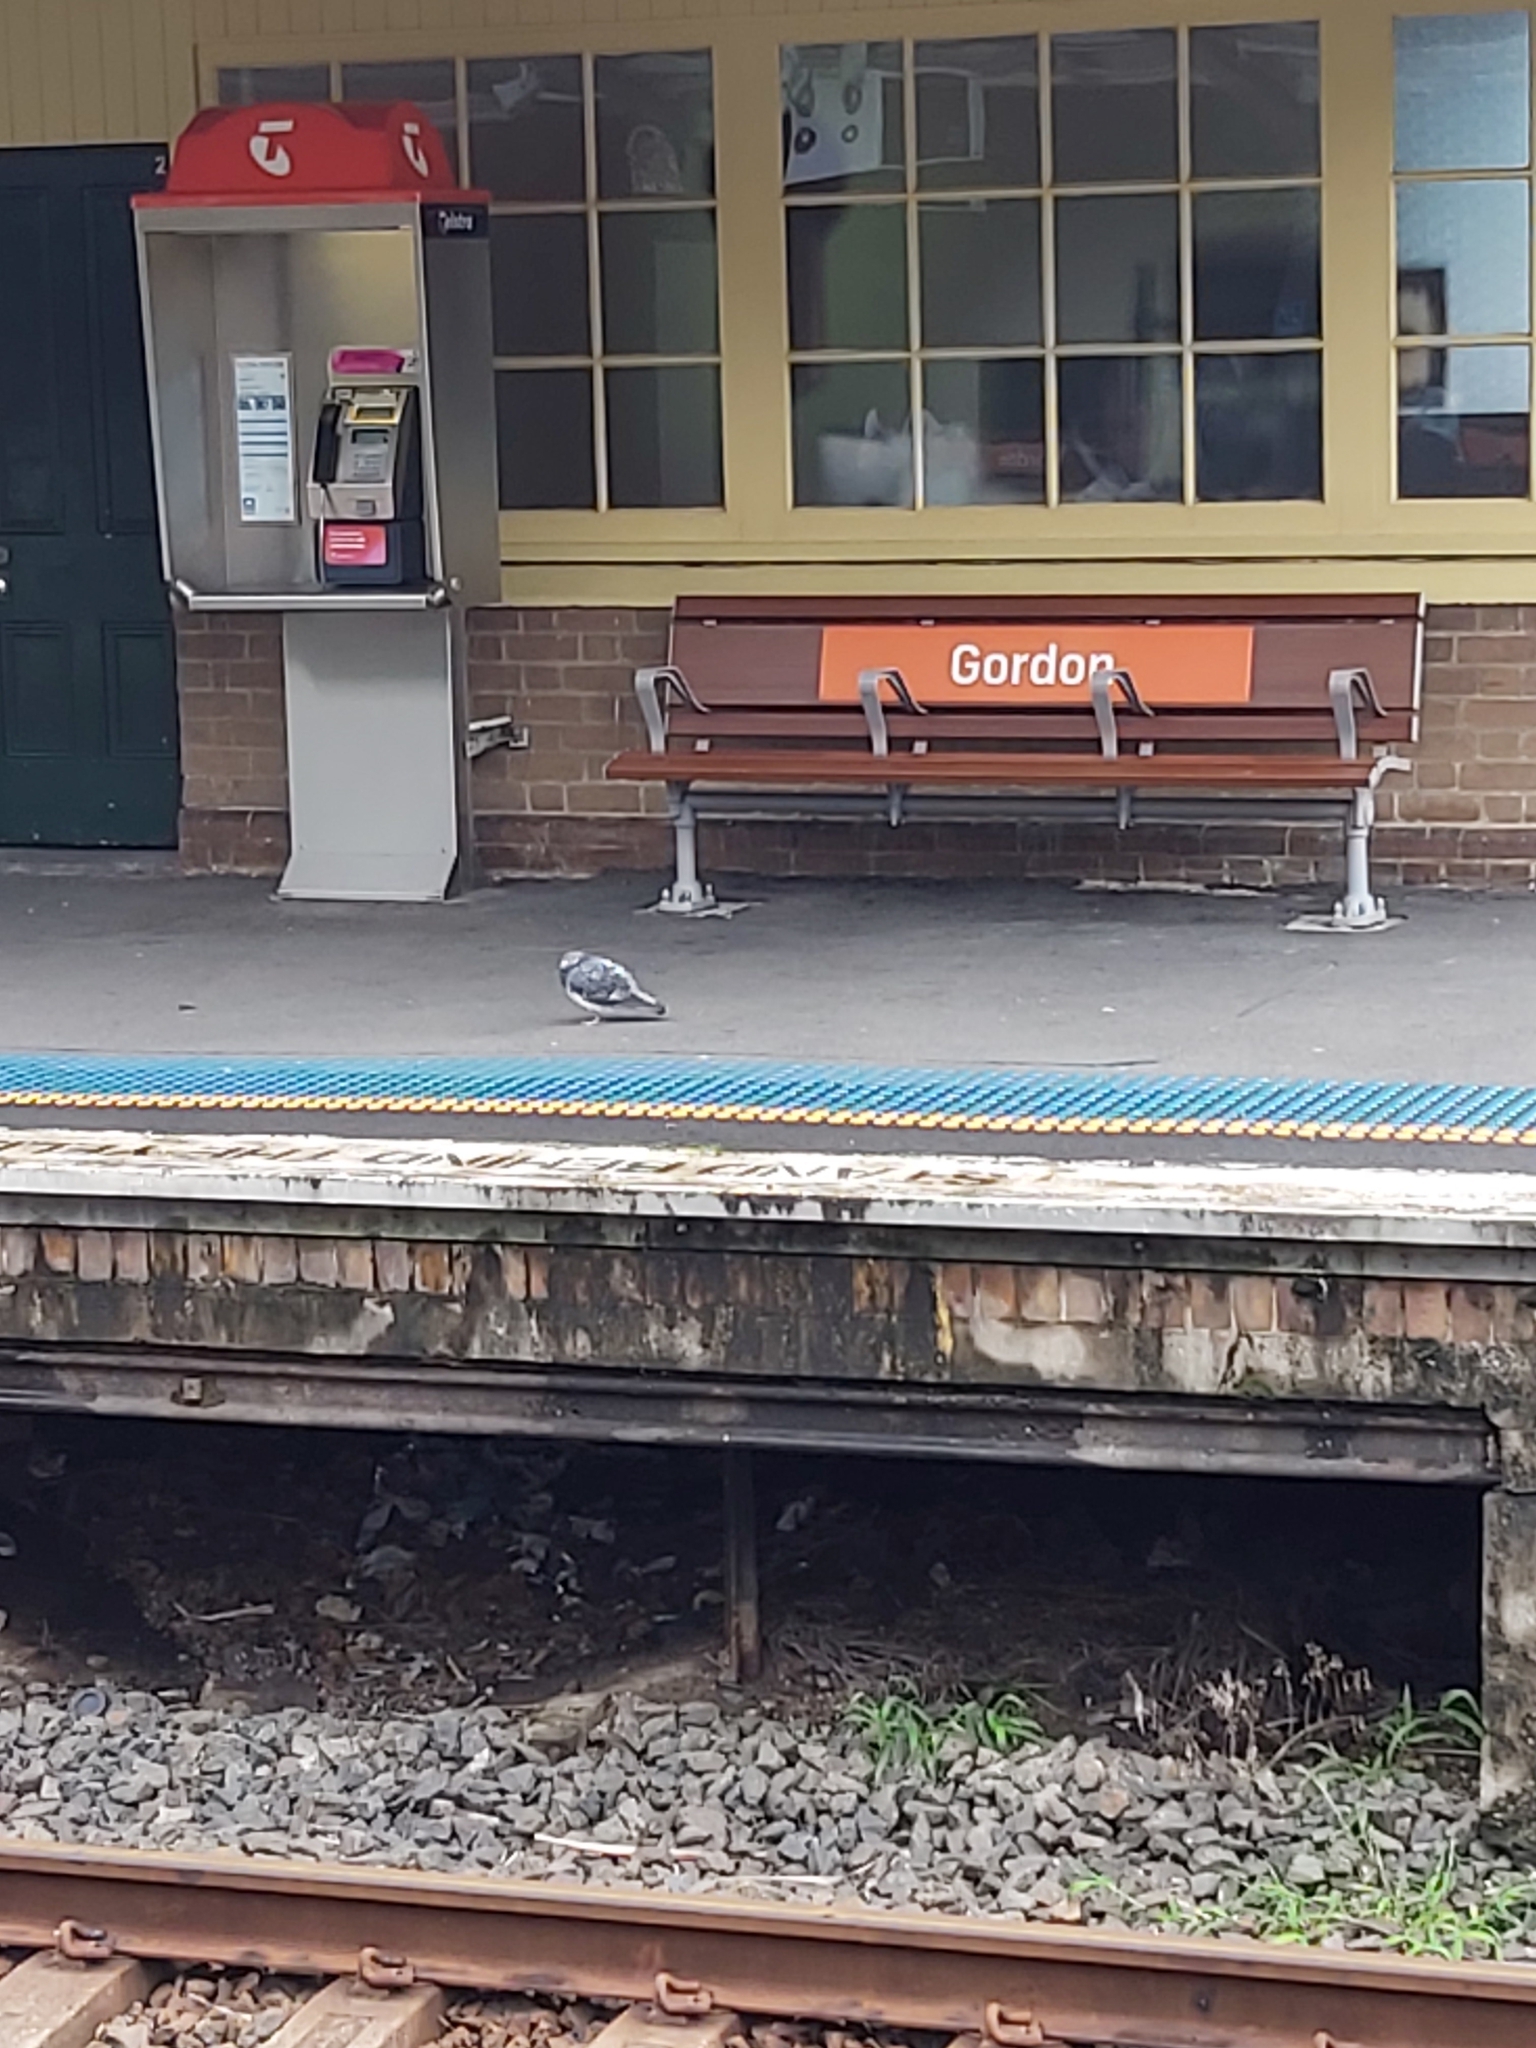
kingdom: Animalia
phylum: Chordata
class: Aves
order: Columbiformes
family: Columbidae
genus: Columba
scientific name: Columba livia
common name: Rock pigeon
